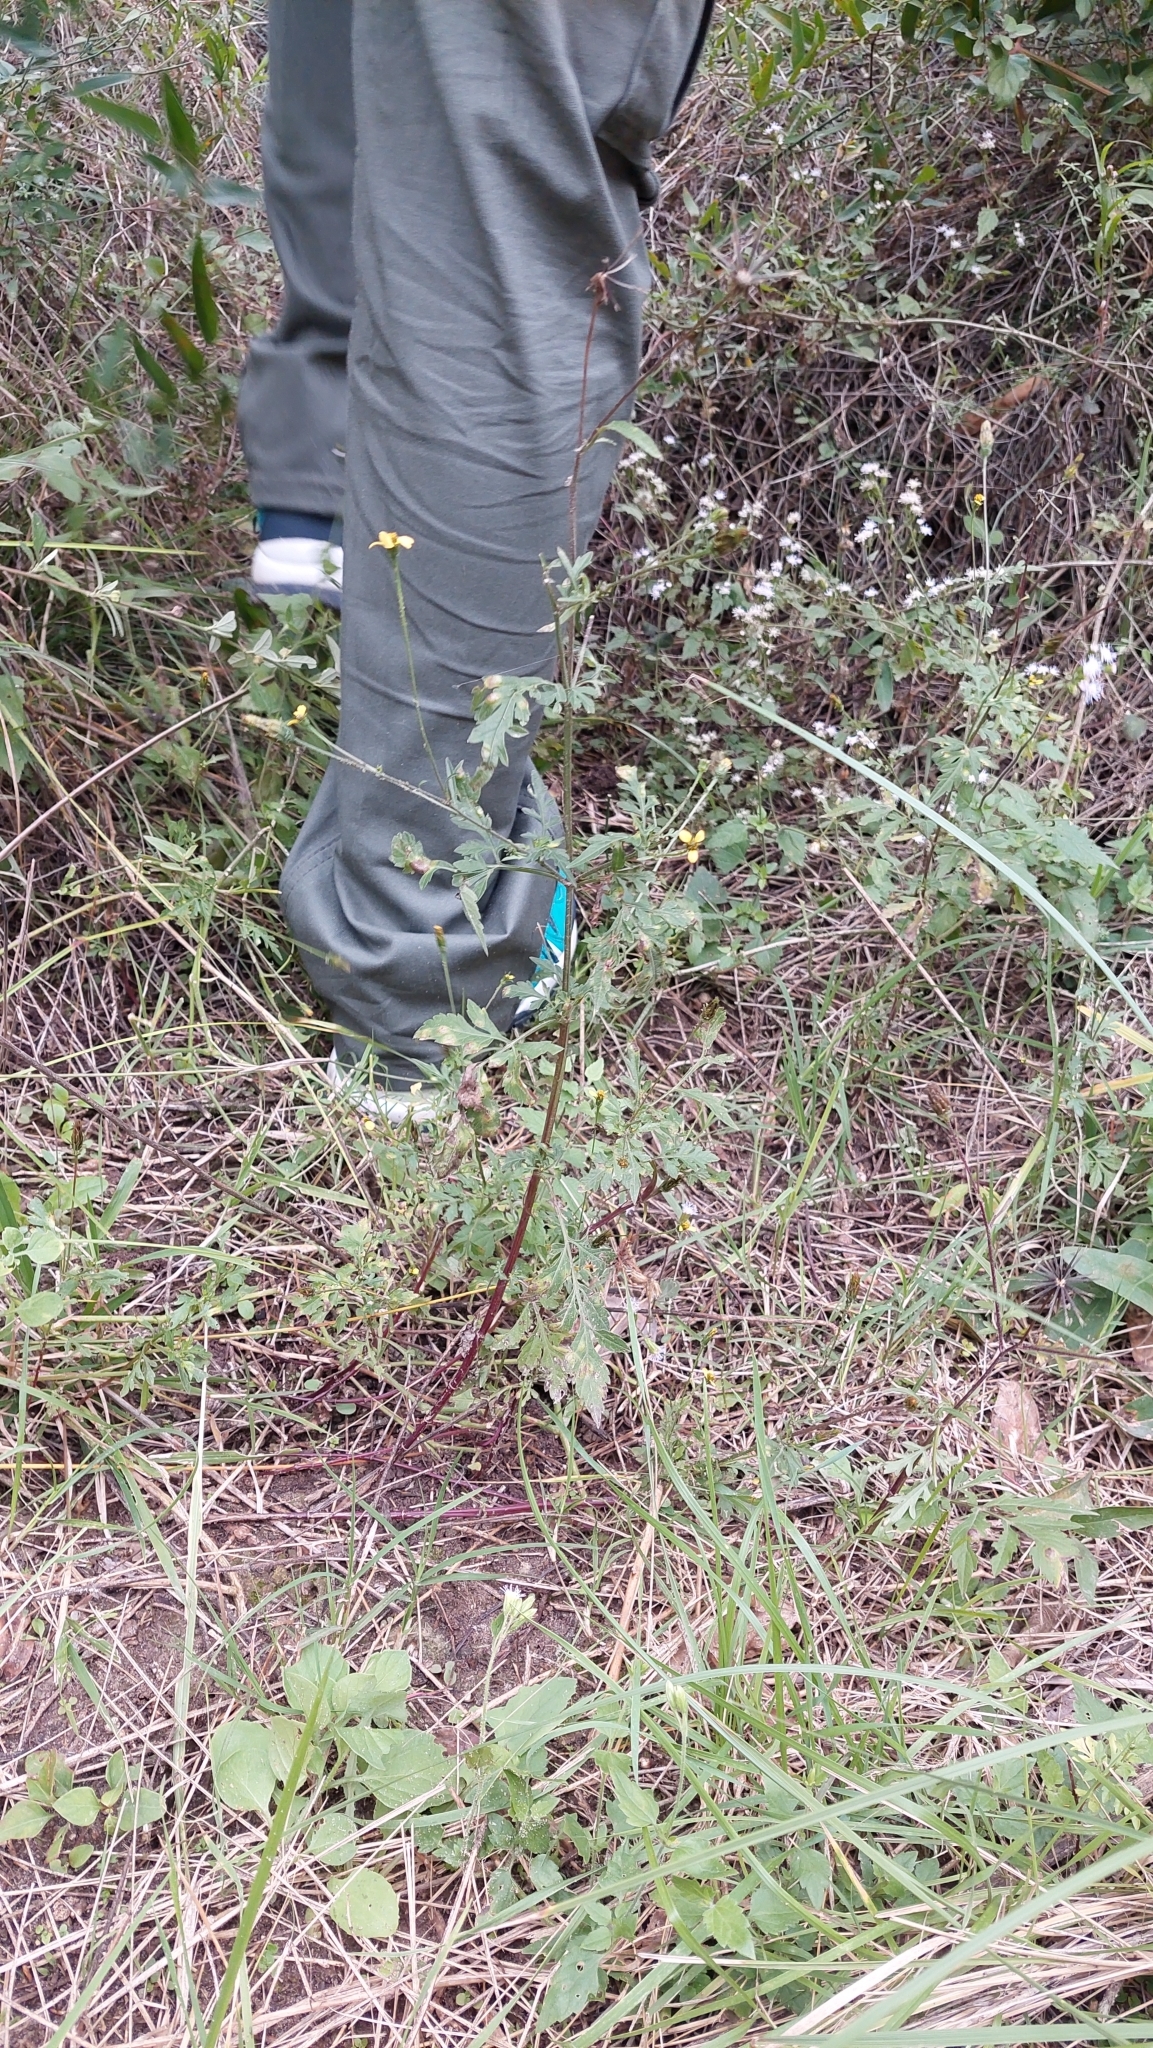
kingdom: Plantae
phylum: Tracheophyta
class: Magnoliopsida
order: Asterales
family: Asteraceae
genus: Bidens
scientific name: Bidens subalternans
